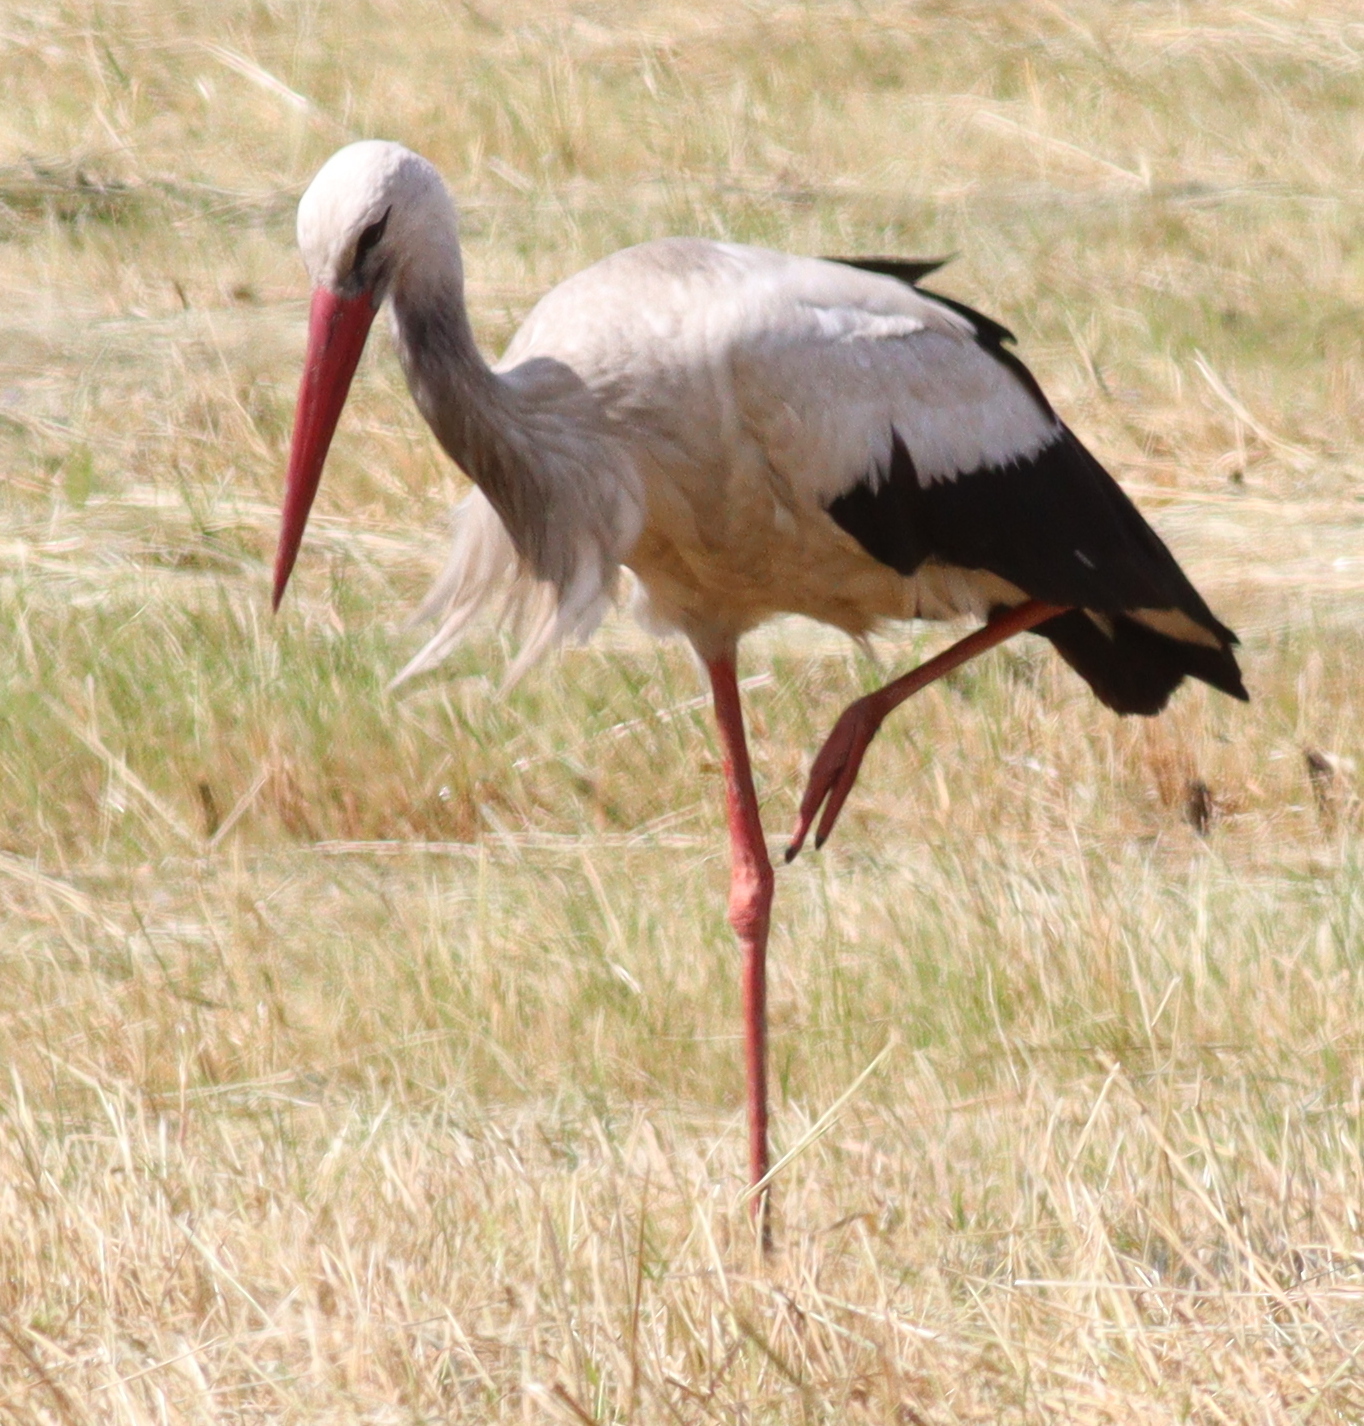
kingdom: Animalia
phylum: Chordata
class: Aves
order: Ciconiiformes
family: Ciconiidae
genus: Ciconia
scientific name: Ciconia ciconia
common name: White stork
